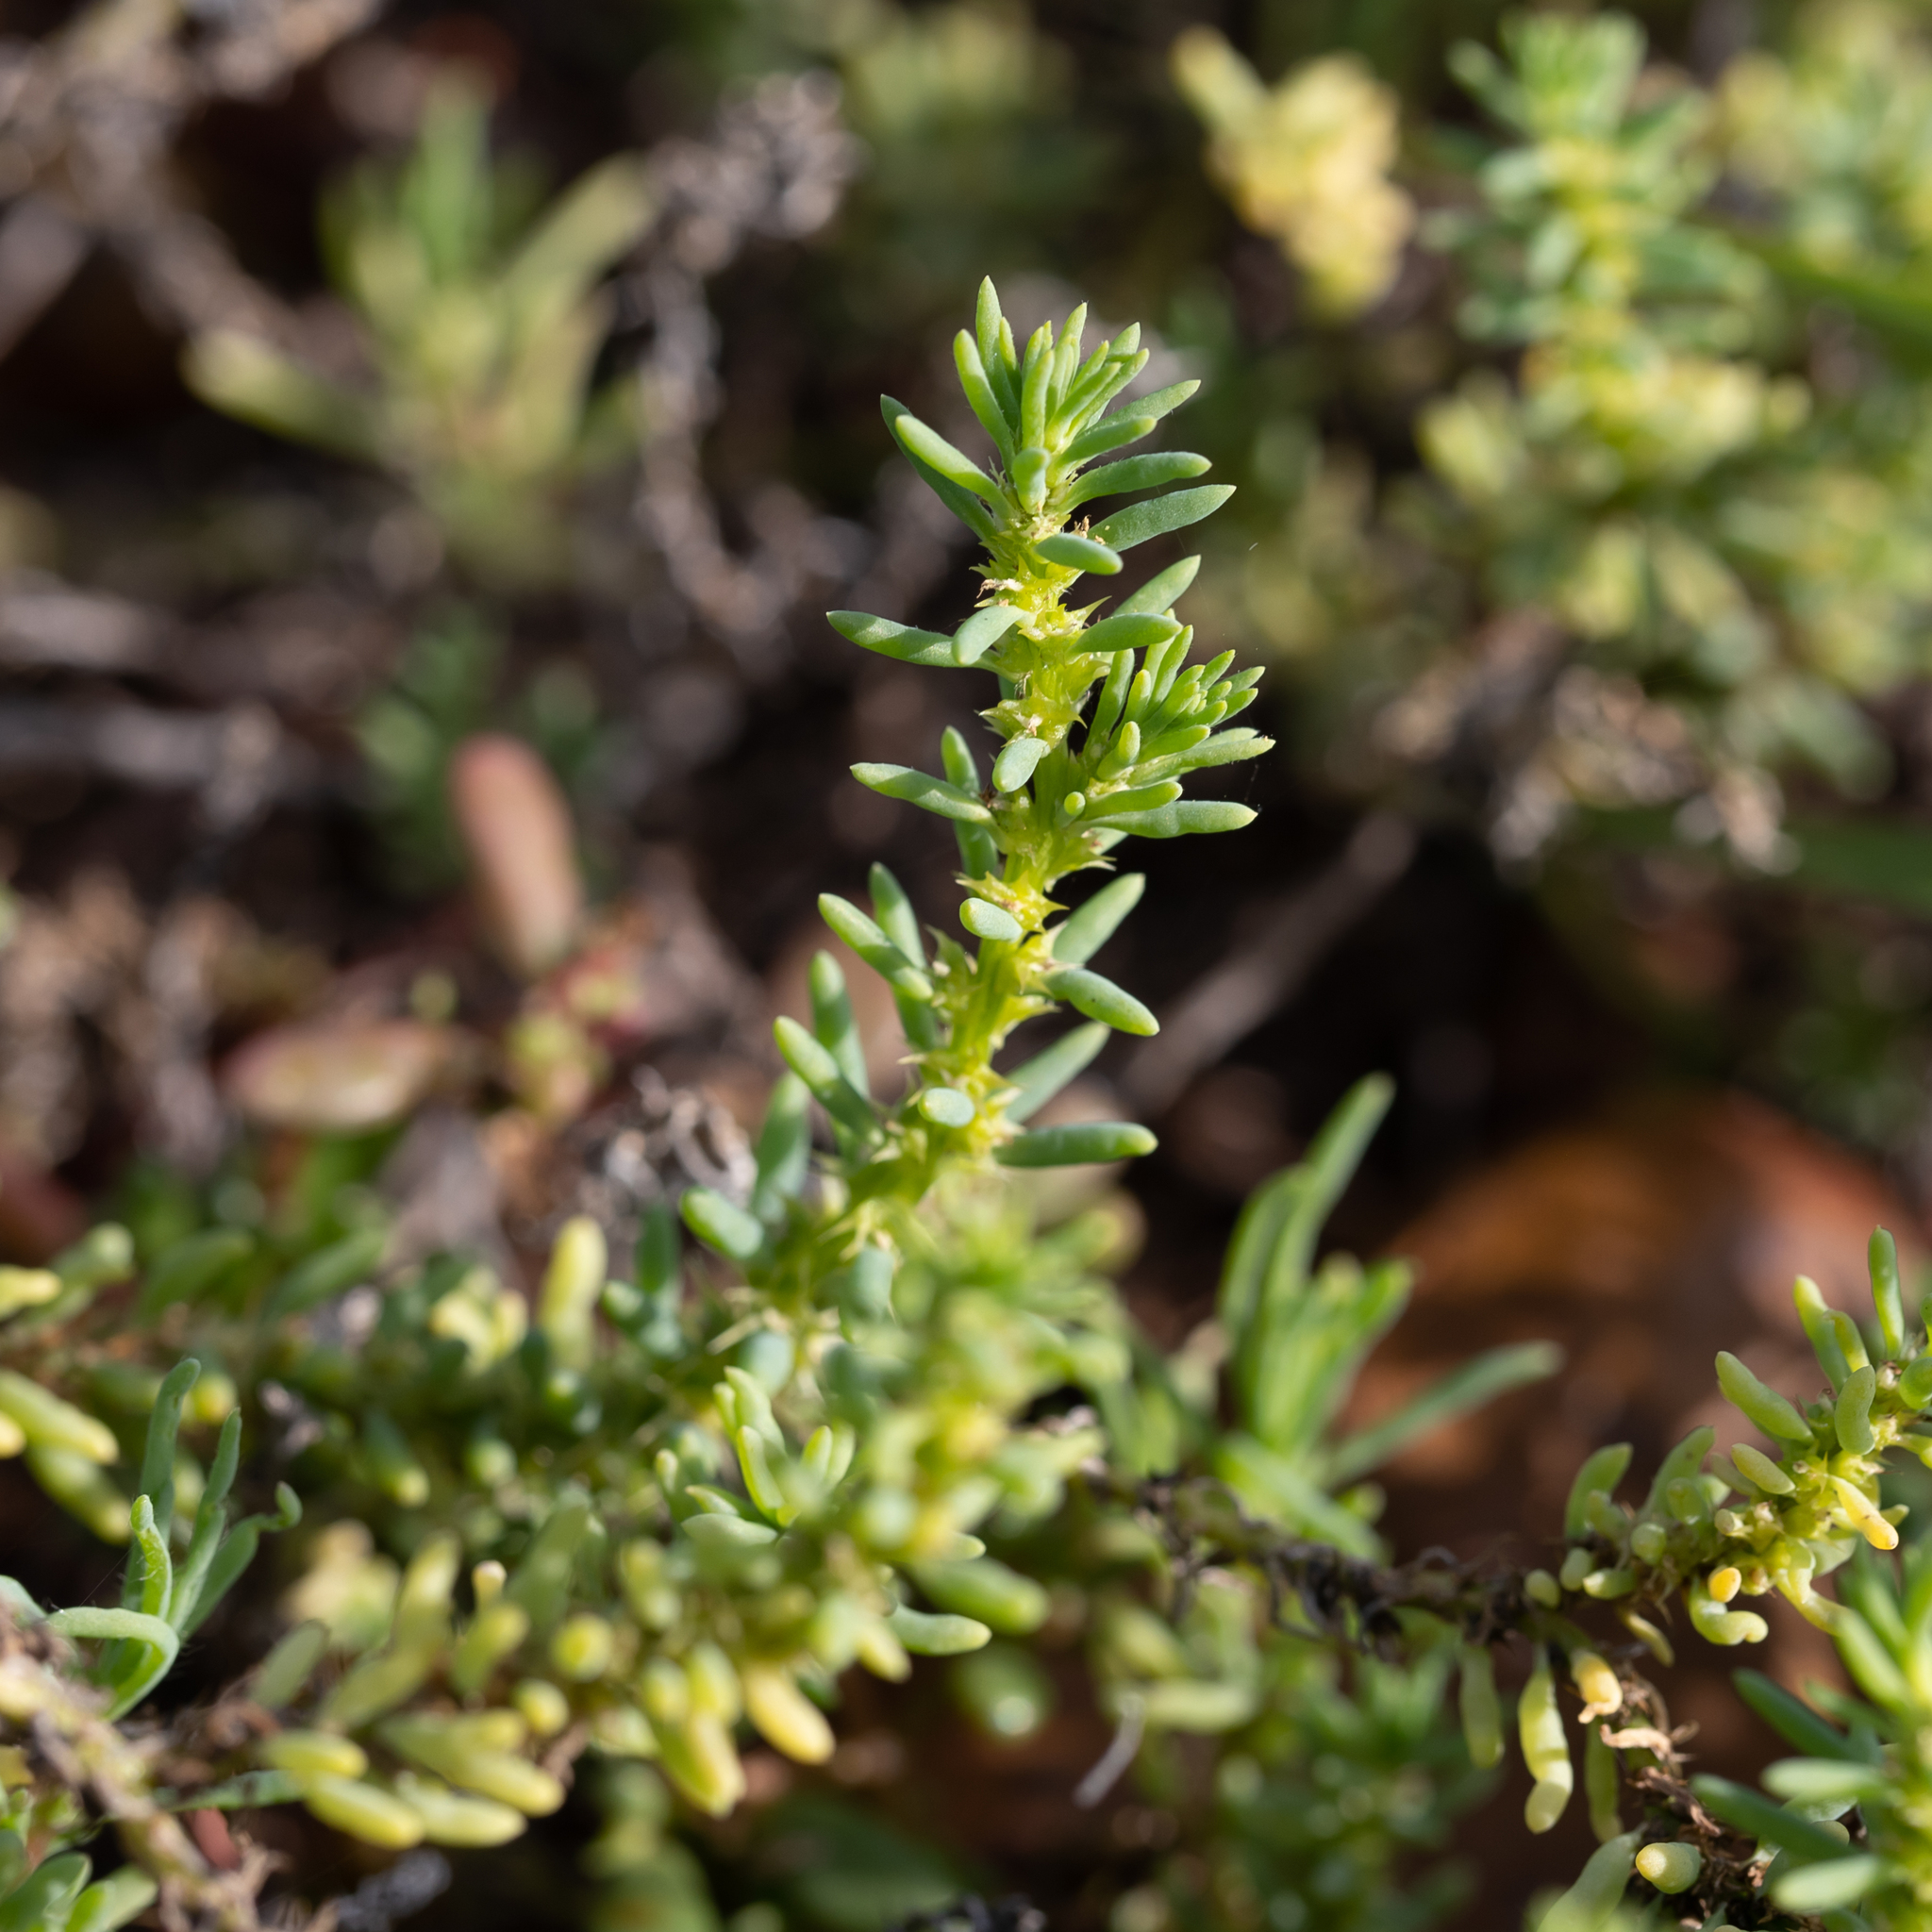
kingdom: Plantae
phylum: Tracheophyta
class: Magnoliopsida
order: Caryophyllales
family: Amaranthaceae
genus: Sclerolaena
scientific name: Sclerolaena calcarata
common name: Red copperbur
